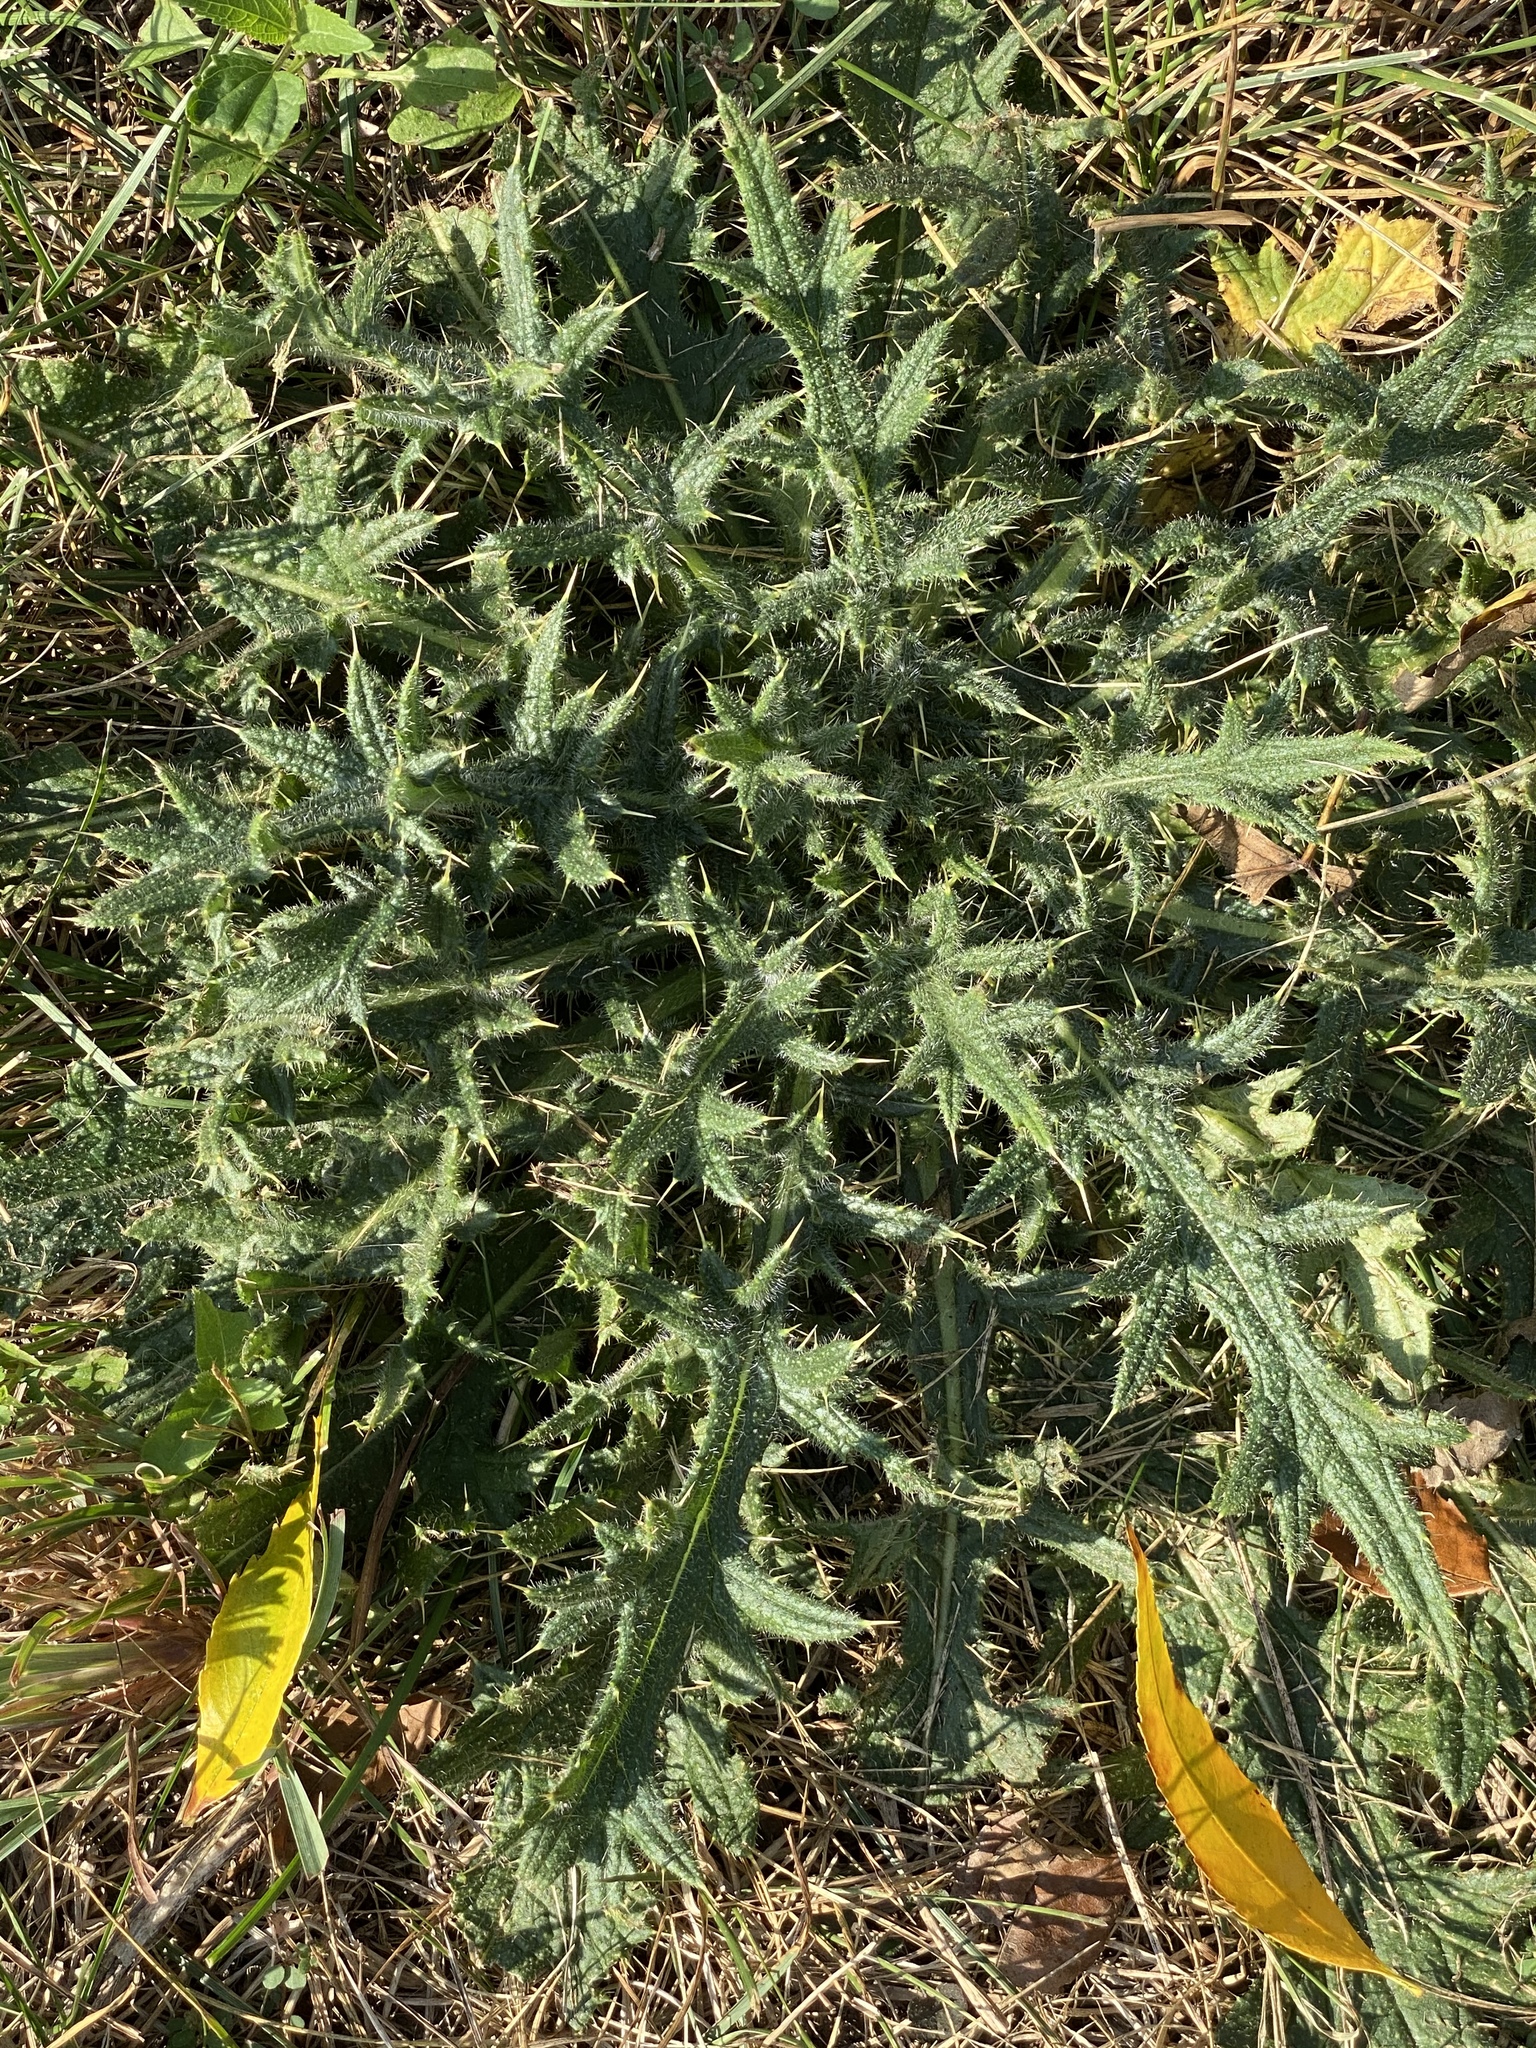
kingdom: Plantae
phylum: Tracheophyta
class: Magnoliopsida
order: Asterales
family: Asteraceae
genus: Cirsium
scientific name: Cirsium vulgare
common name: Bull thistle
